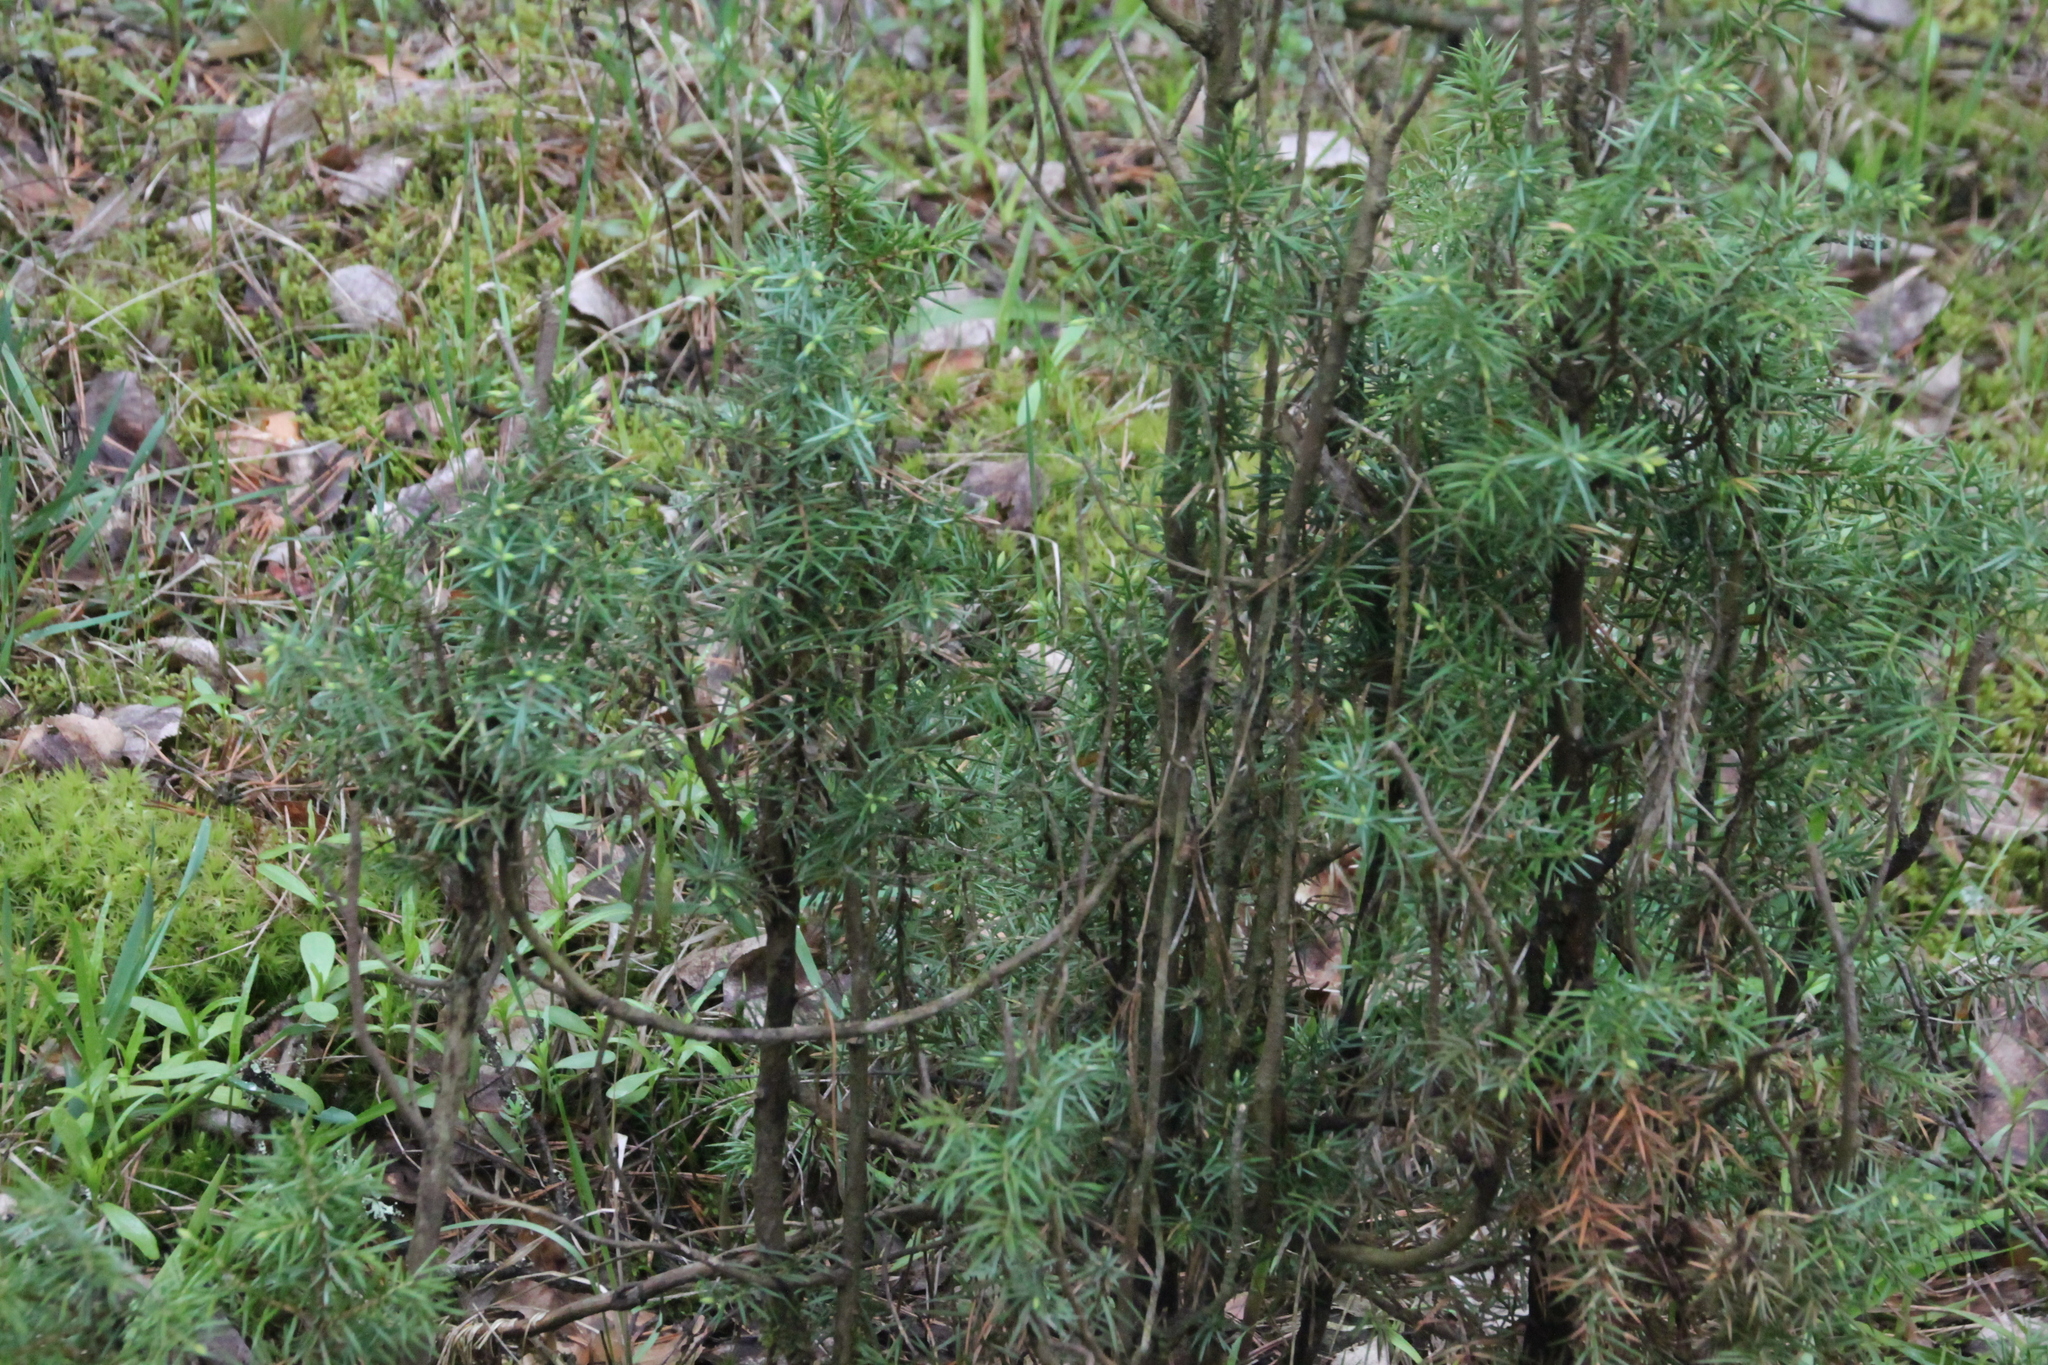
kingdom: Plantae
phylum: Tracheophyta
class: Pinopsida
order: Pinales
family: Cupressaceae
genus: Juniperus
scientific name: Juniperus communis
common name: Common juniper
